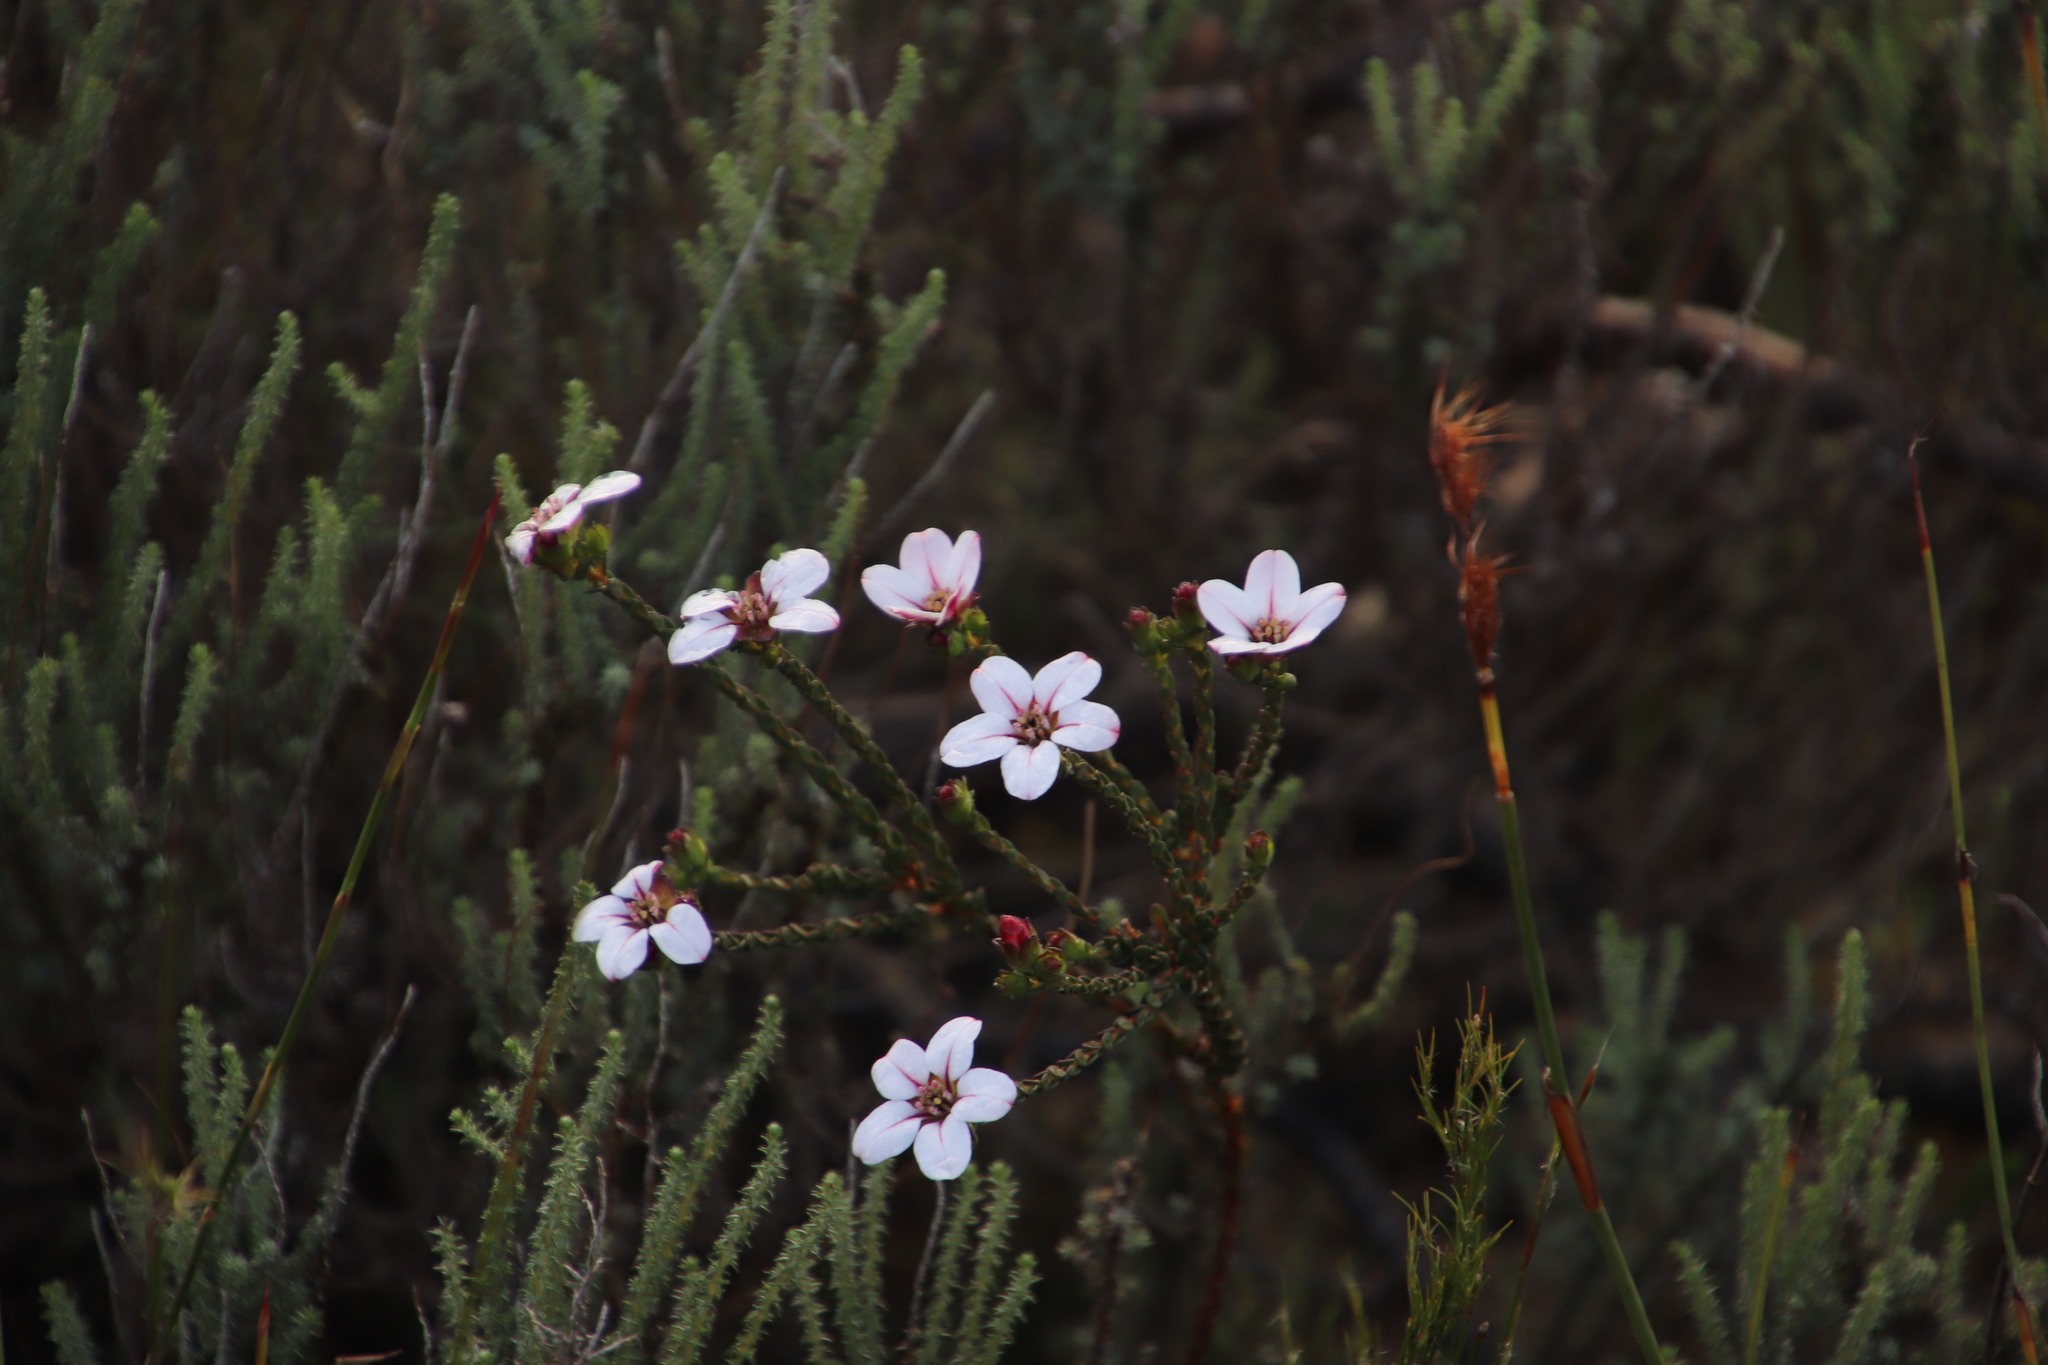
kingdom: Plantae
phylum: Tracheophyta
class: Magnoliopsida
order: Sapindales
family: Rutaceae
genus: Adenandra
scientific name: Adenandra villosa
